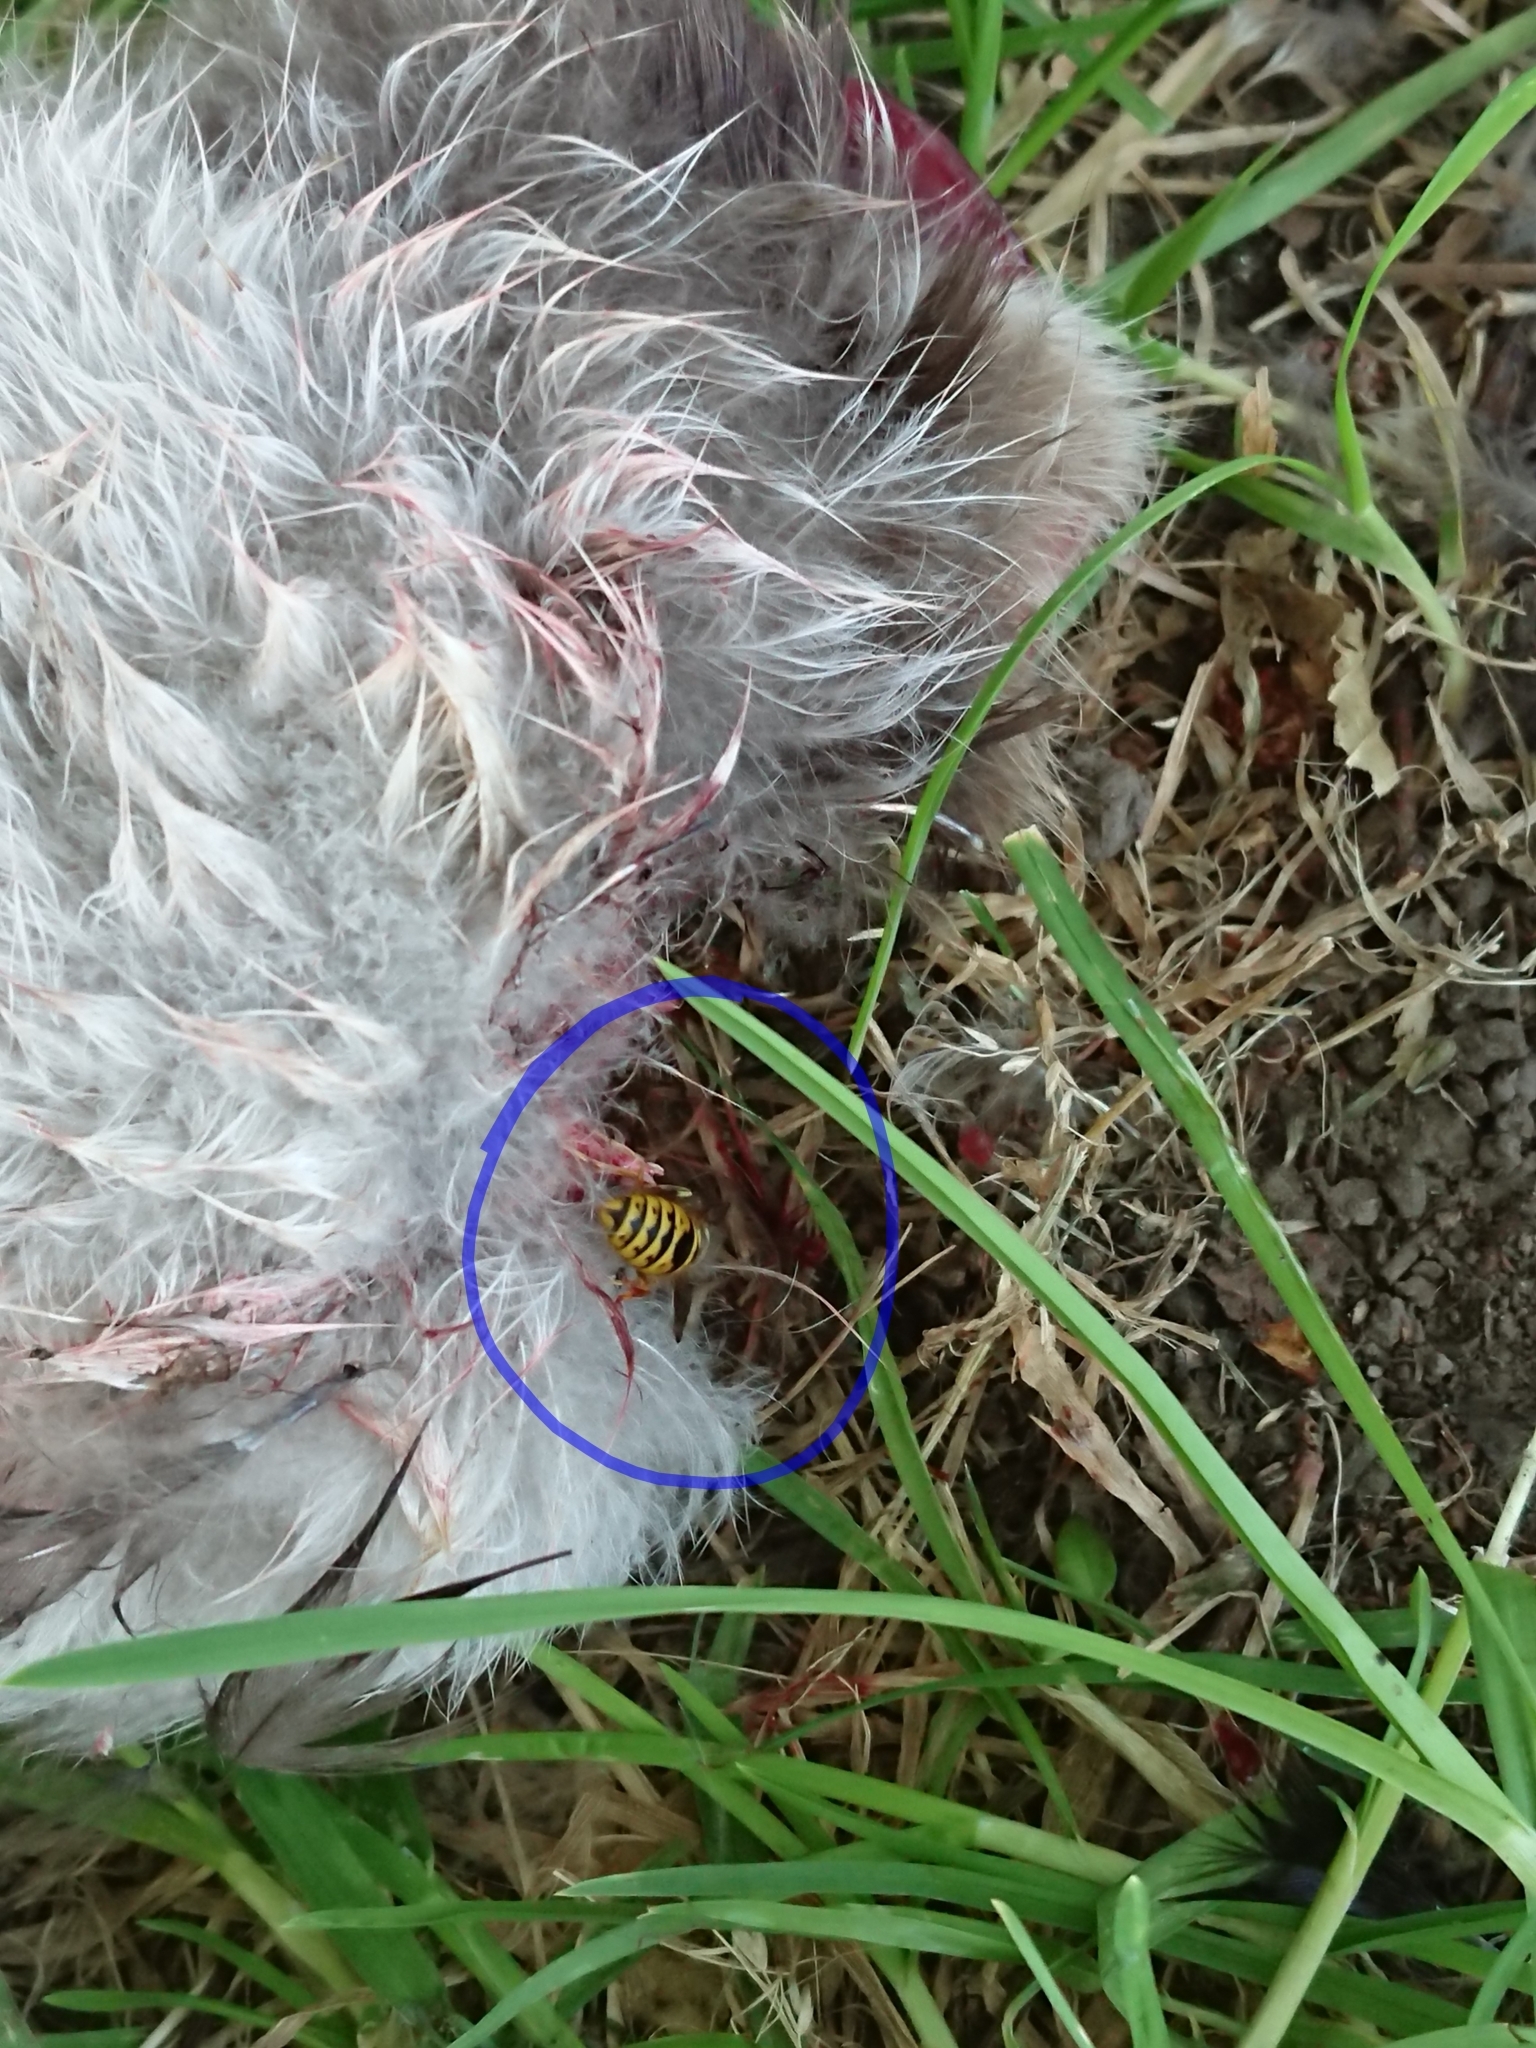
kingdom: Animalia
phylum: Arthropoda
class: Insecta
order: Hymenoptera
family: Vespidae
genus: Vespula
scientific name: Vespula vulgaris
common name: Common wasp
